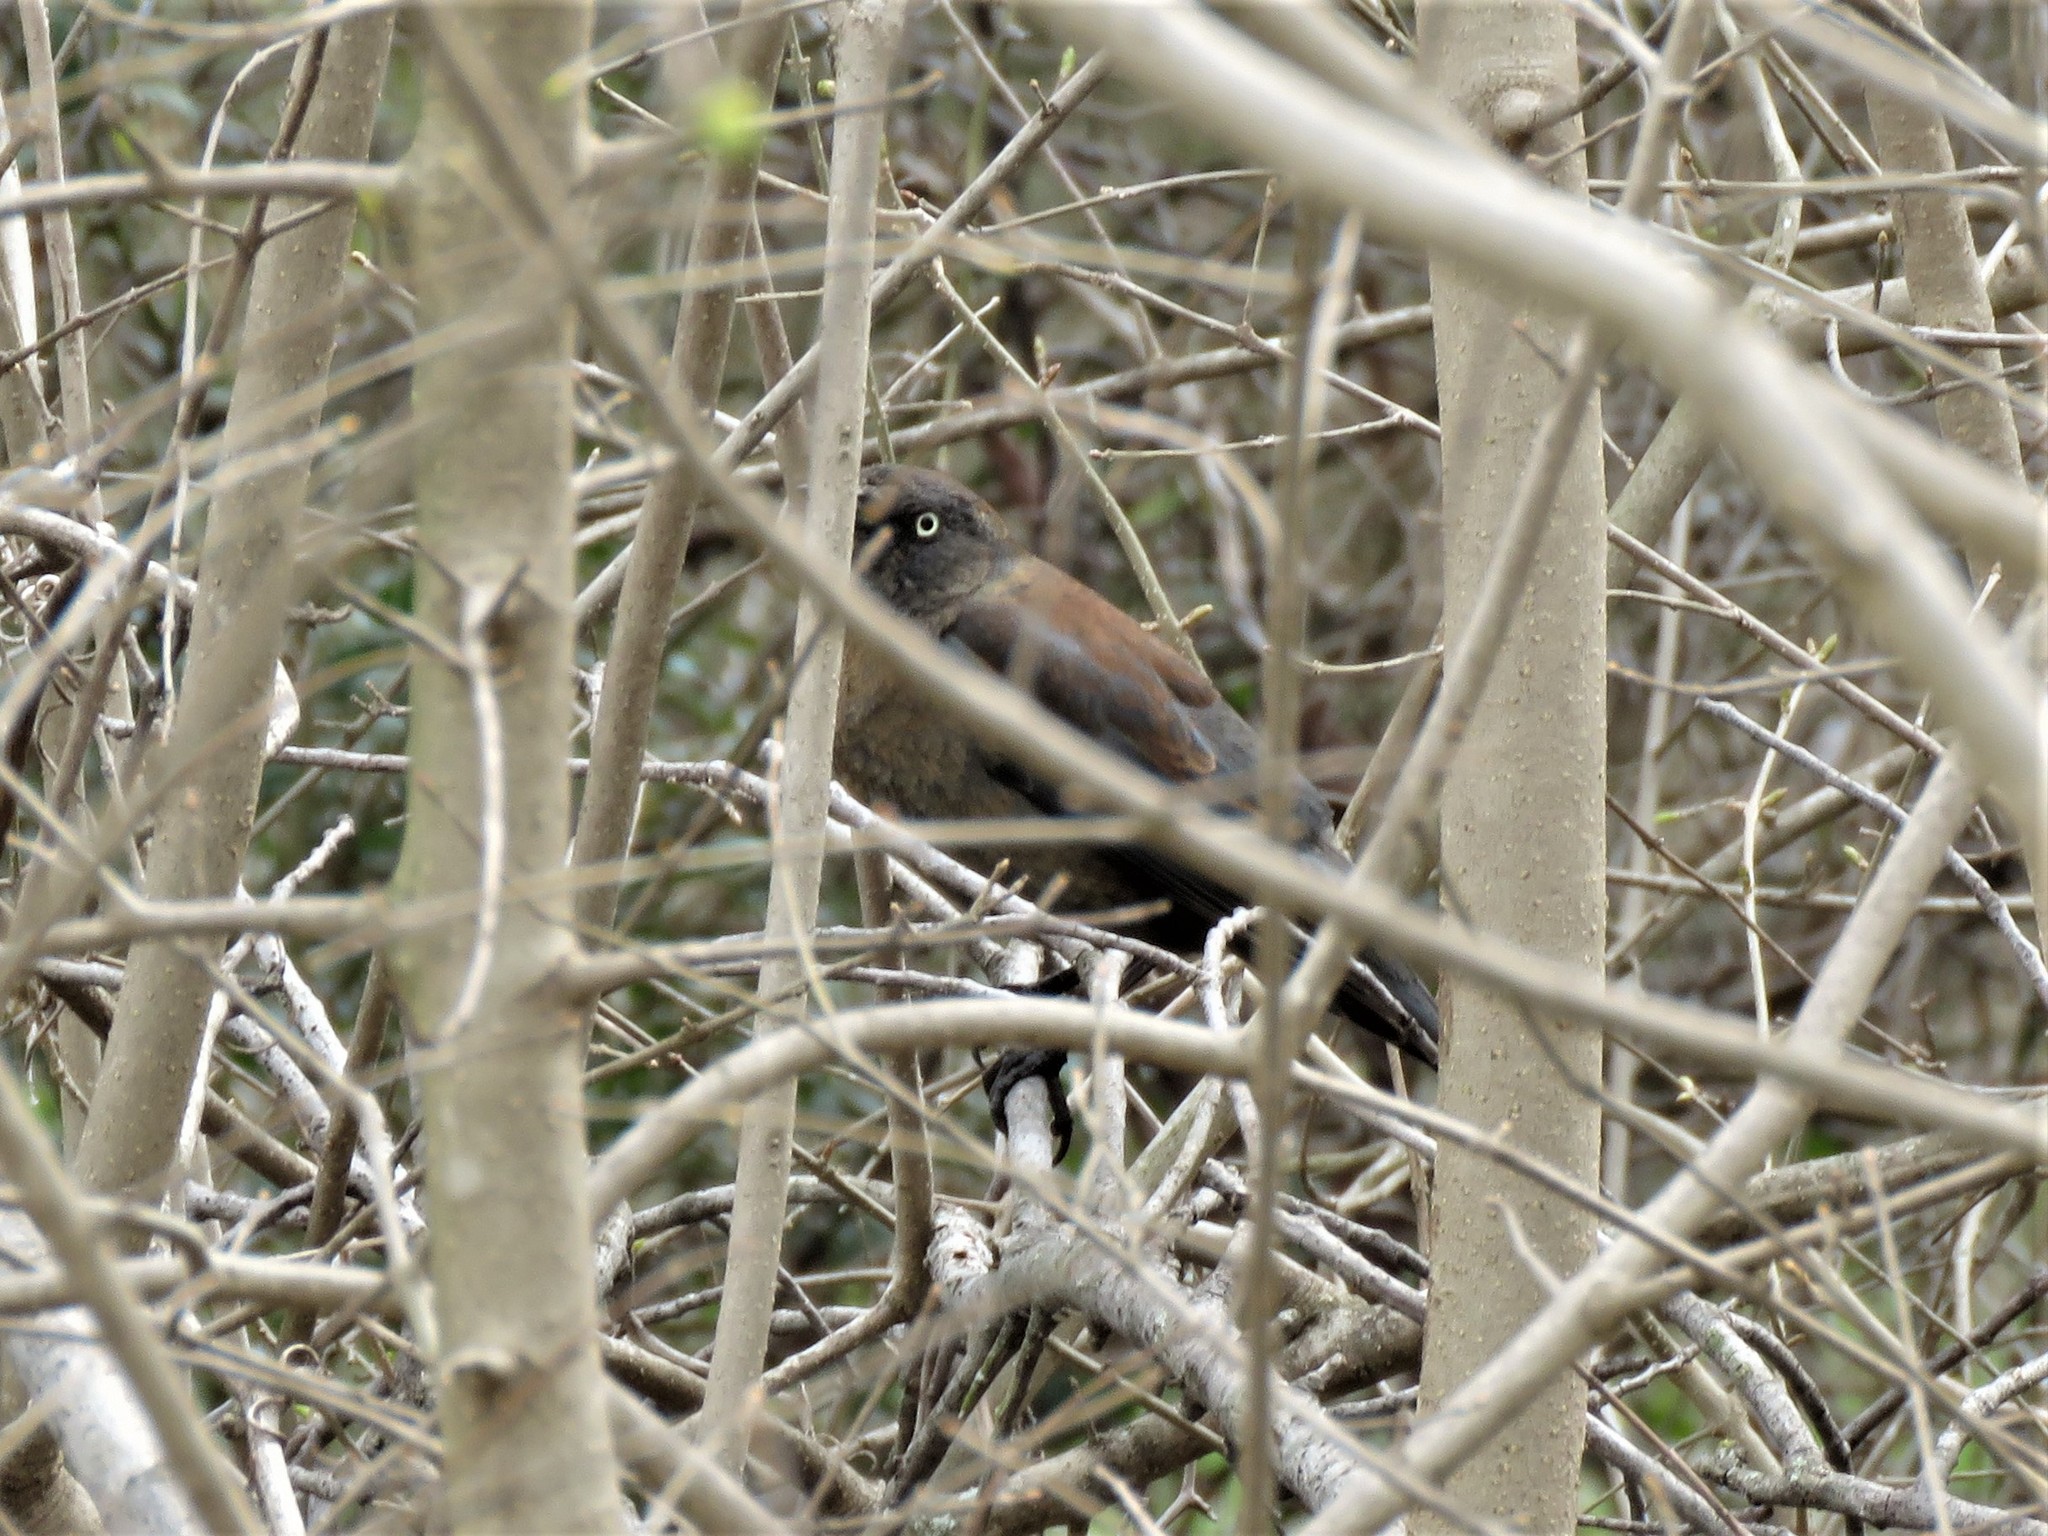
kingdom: Animalia
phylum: Chordata
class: Aves
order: Passeriformes
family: Icteridae
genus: Euphagus
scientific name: Euphagus carolinus
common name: Rusty blackbird
